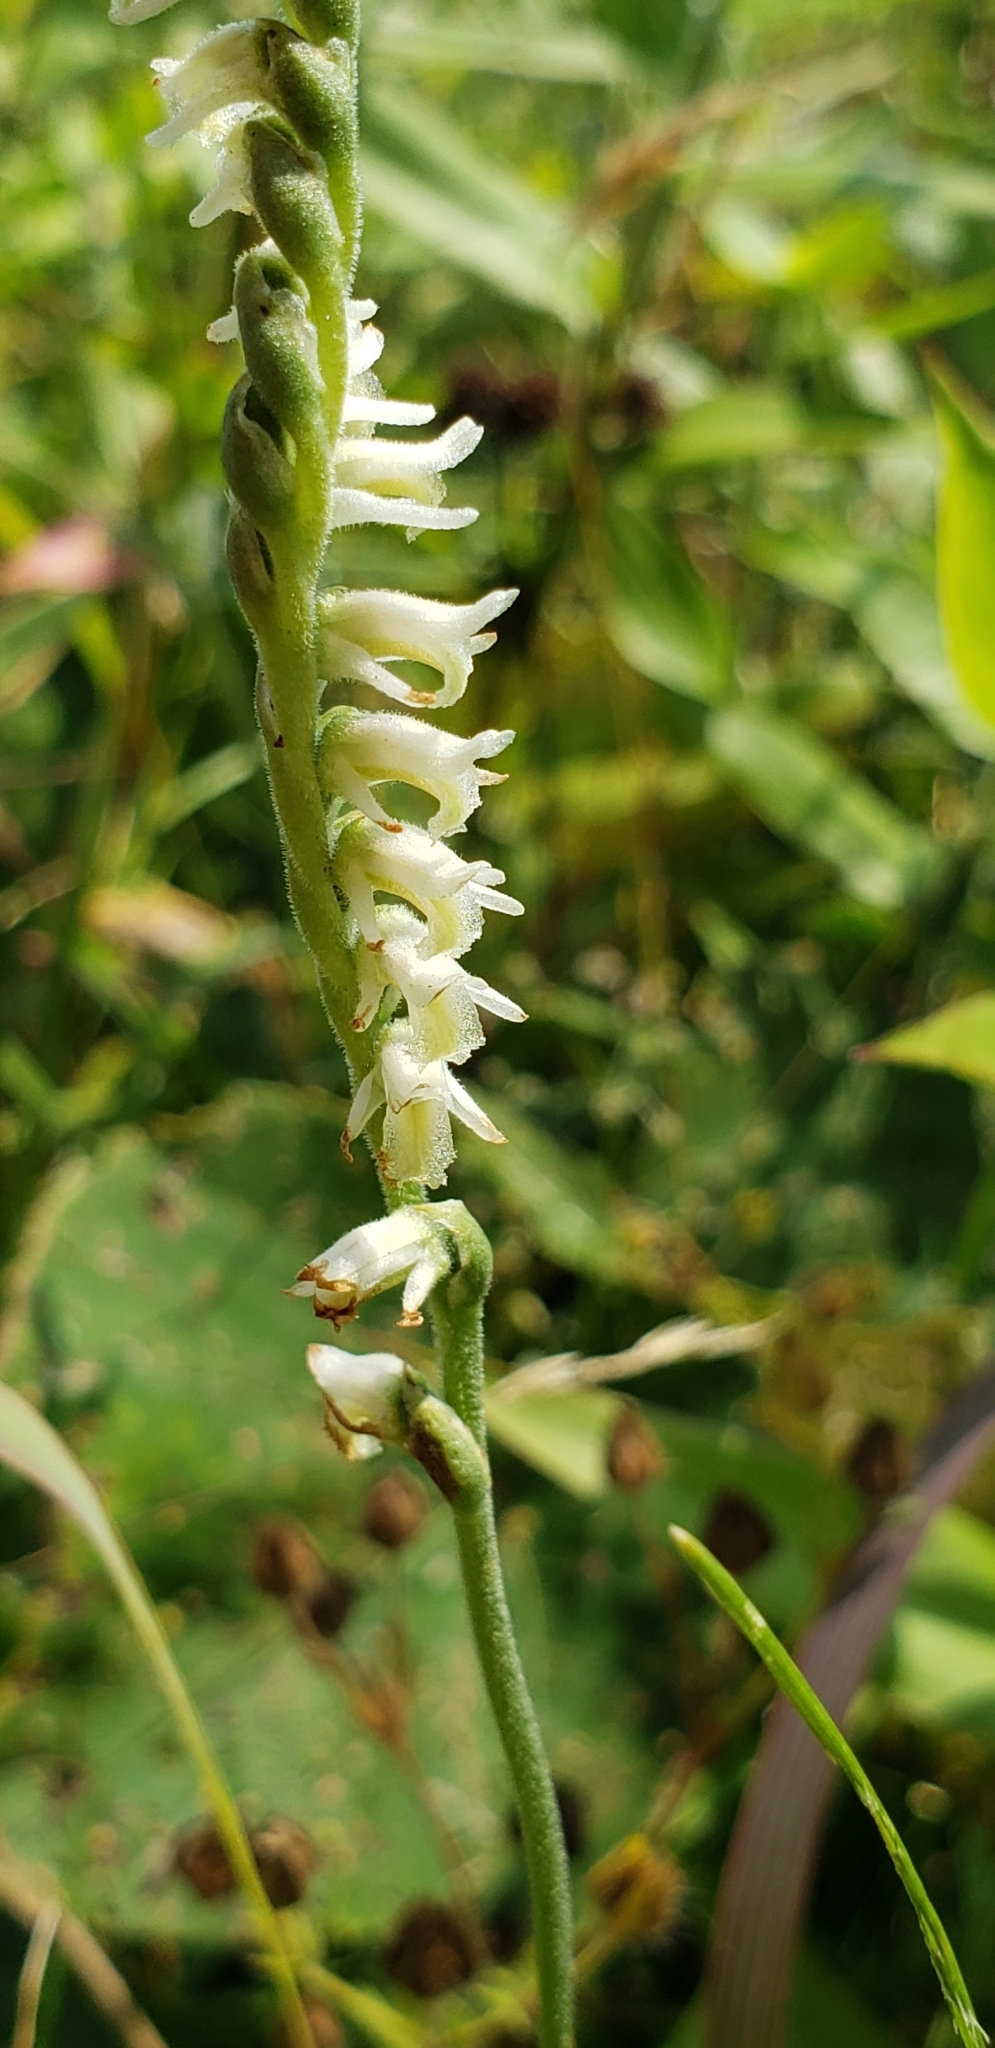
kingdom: Plantae
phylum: Tracheophyta
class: Liliopsida
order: Asparagales
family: Orchidaceae
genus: Spiranthes
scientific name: Spiranthes vernalis
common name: Spring ladies'-tresses
